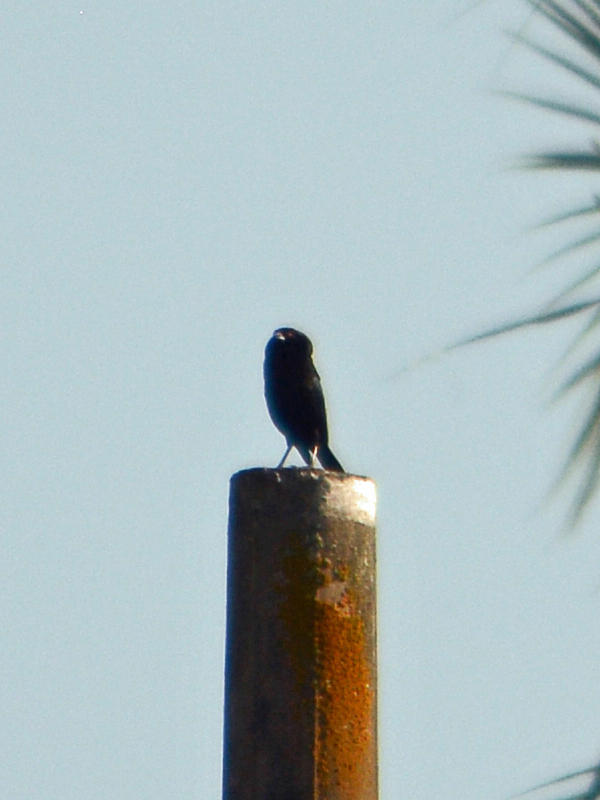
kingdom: Animalia
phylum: Chordata
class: Aves
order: Passeriformes
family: Icteridae
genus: Molothrus
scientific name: Molothrus aeneus
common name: Bronzed cowbird
